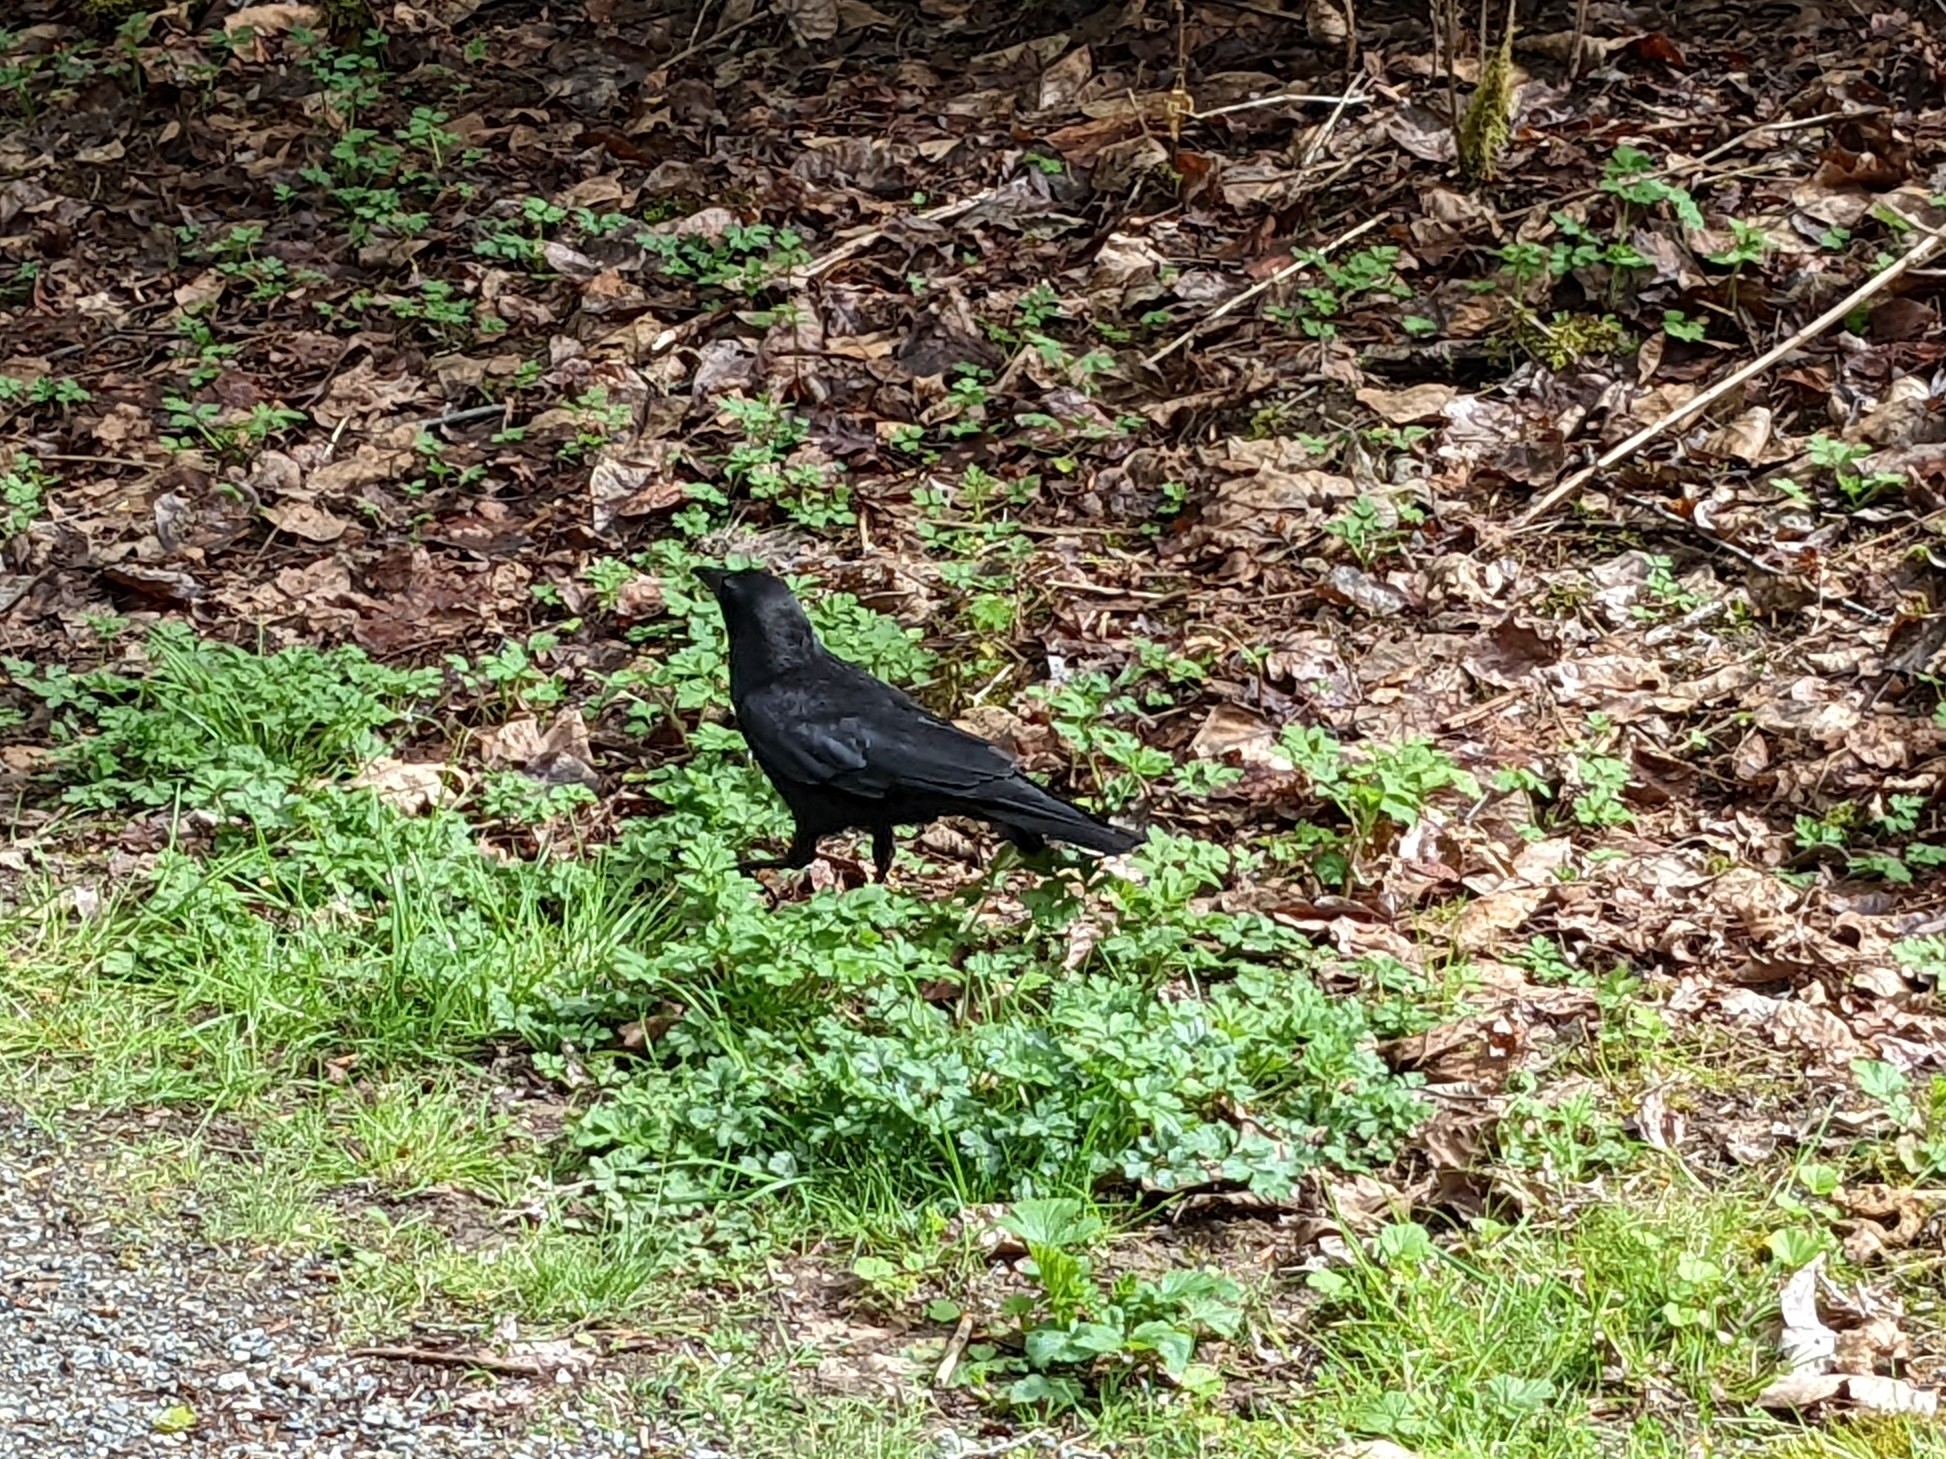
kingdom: Animalia
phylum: Chordata
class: Aves
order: Passeriformes
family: Corvidae
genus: Corvus
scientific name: Corvus brachyrhynchos
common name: American crow
